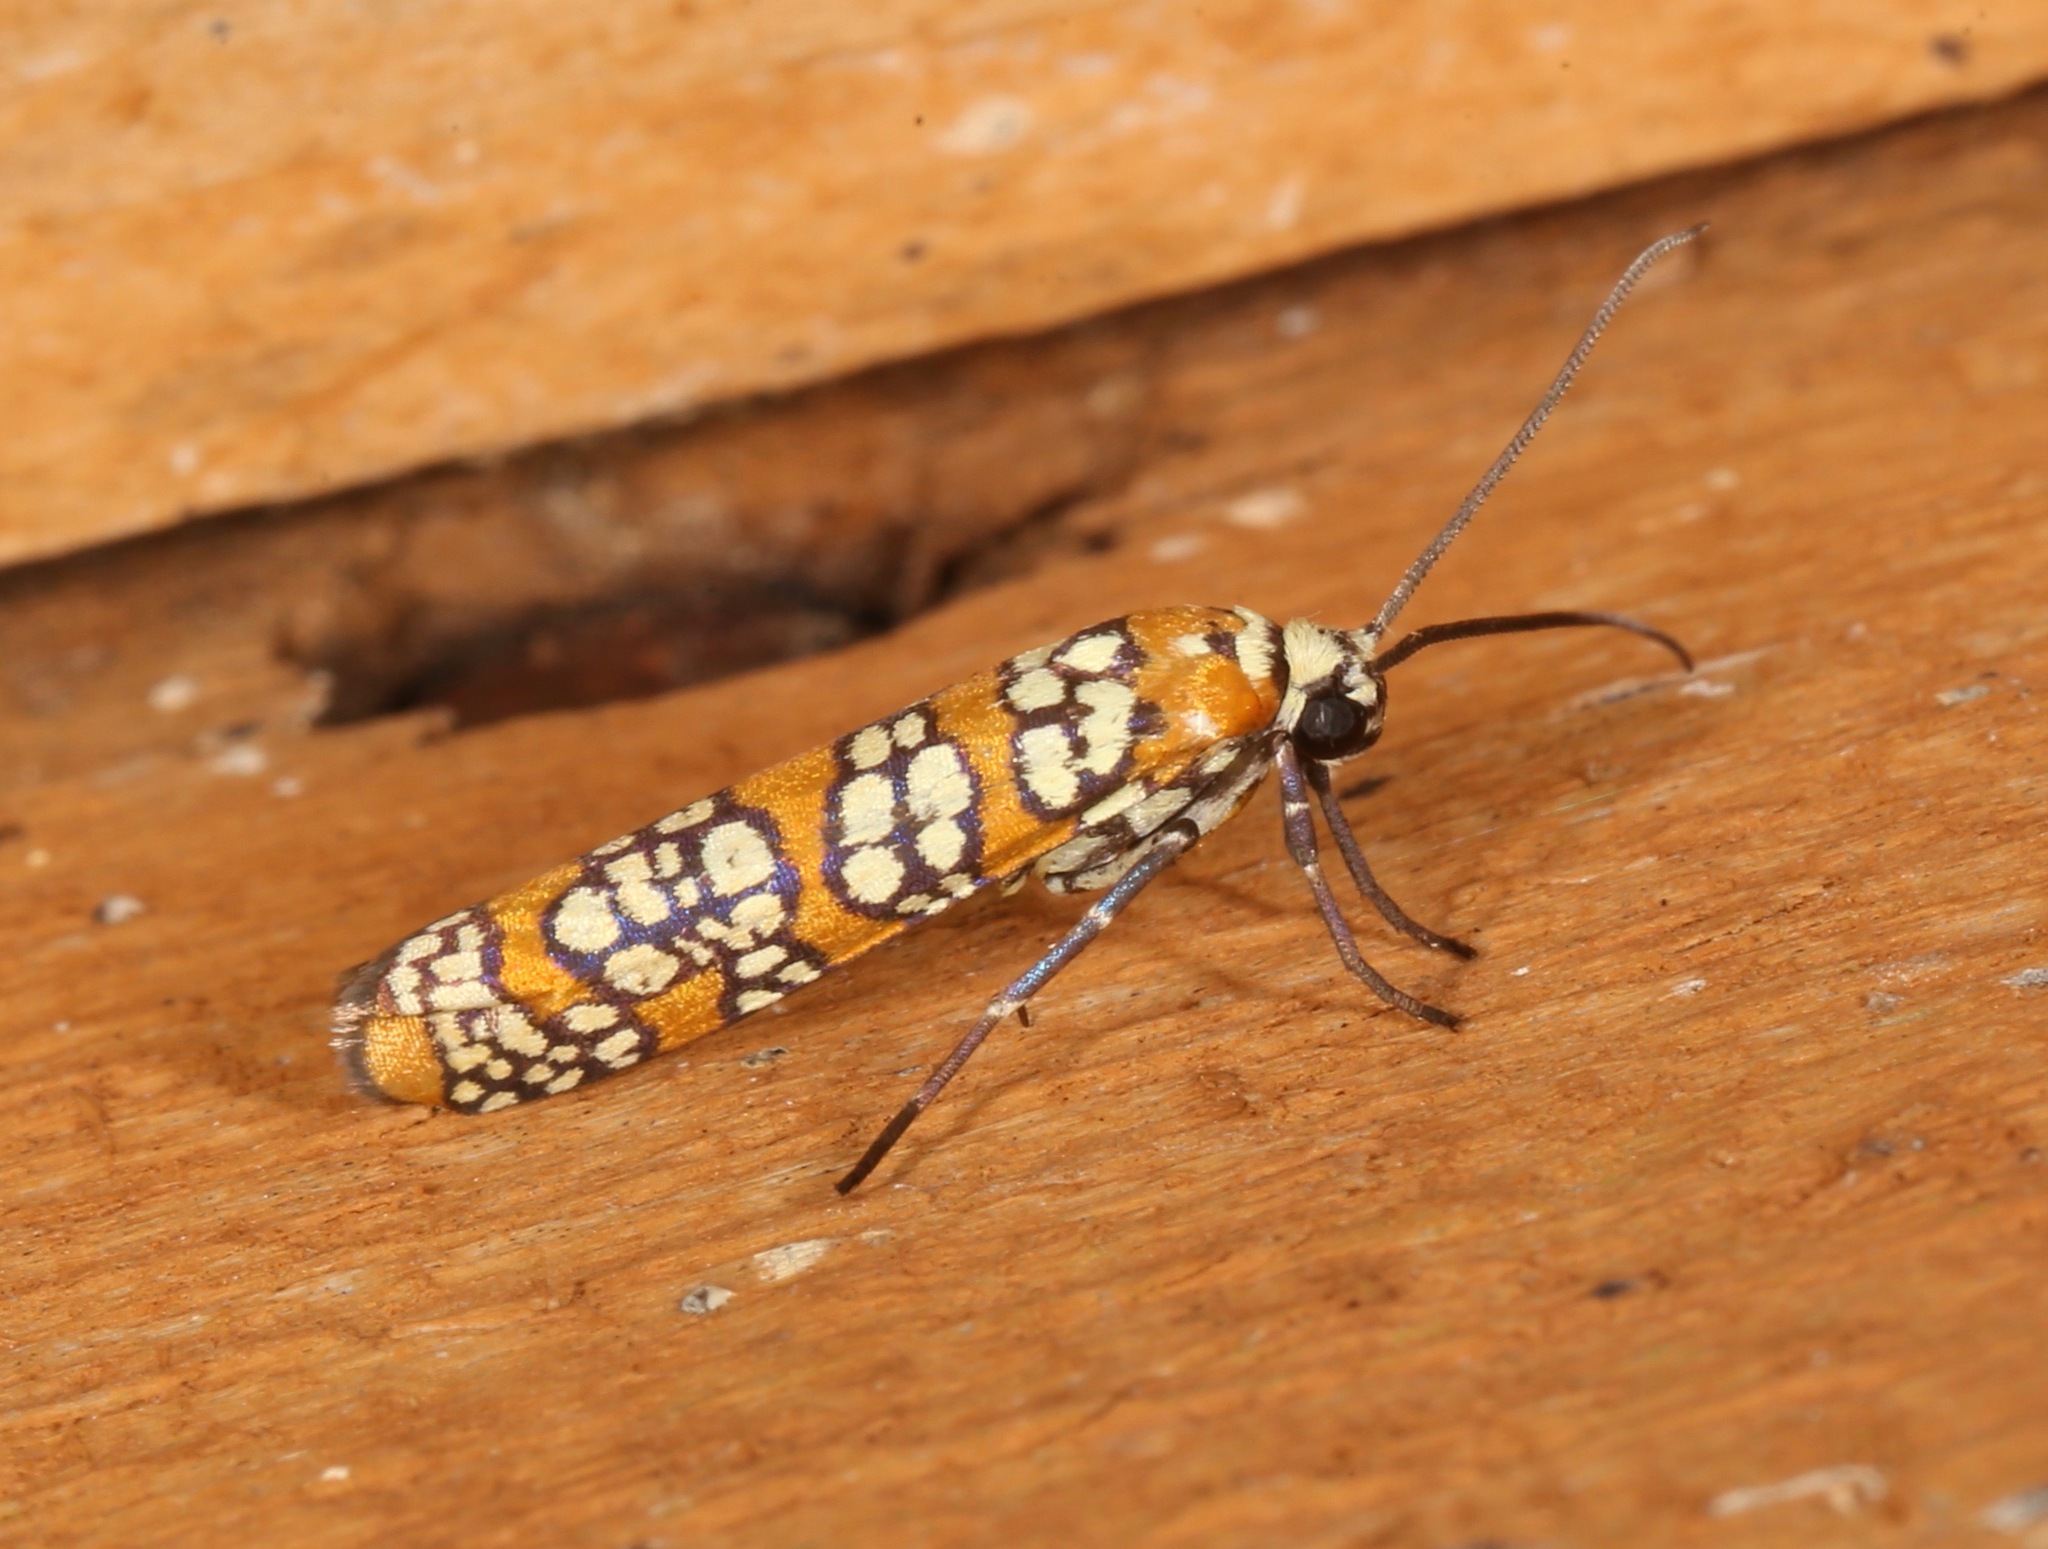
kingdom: Animalia
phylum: Arthropoda
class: Insecta
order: Lepidoptera
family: Attevidae
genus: Atteva
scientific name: Atteva punctella
